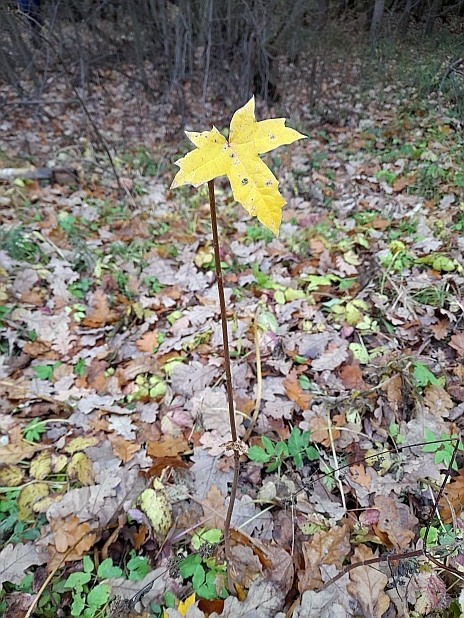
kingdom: Plantae
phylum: Tracheophyta
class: Magnoliopsida
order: Sapindales
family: Sapindaceae
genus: Acer
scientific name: Acer platanoides
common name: Norway maple
